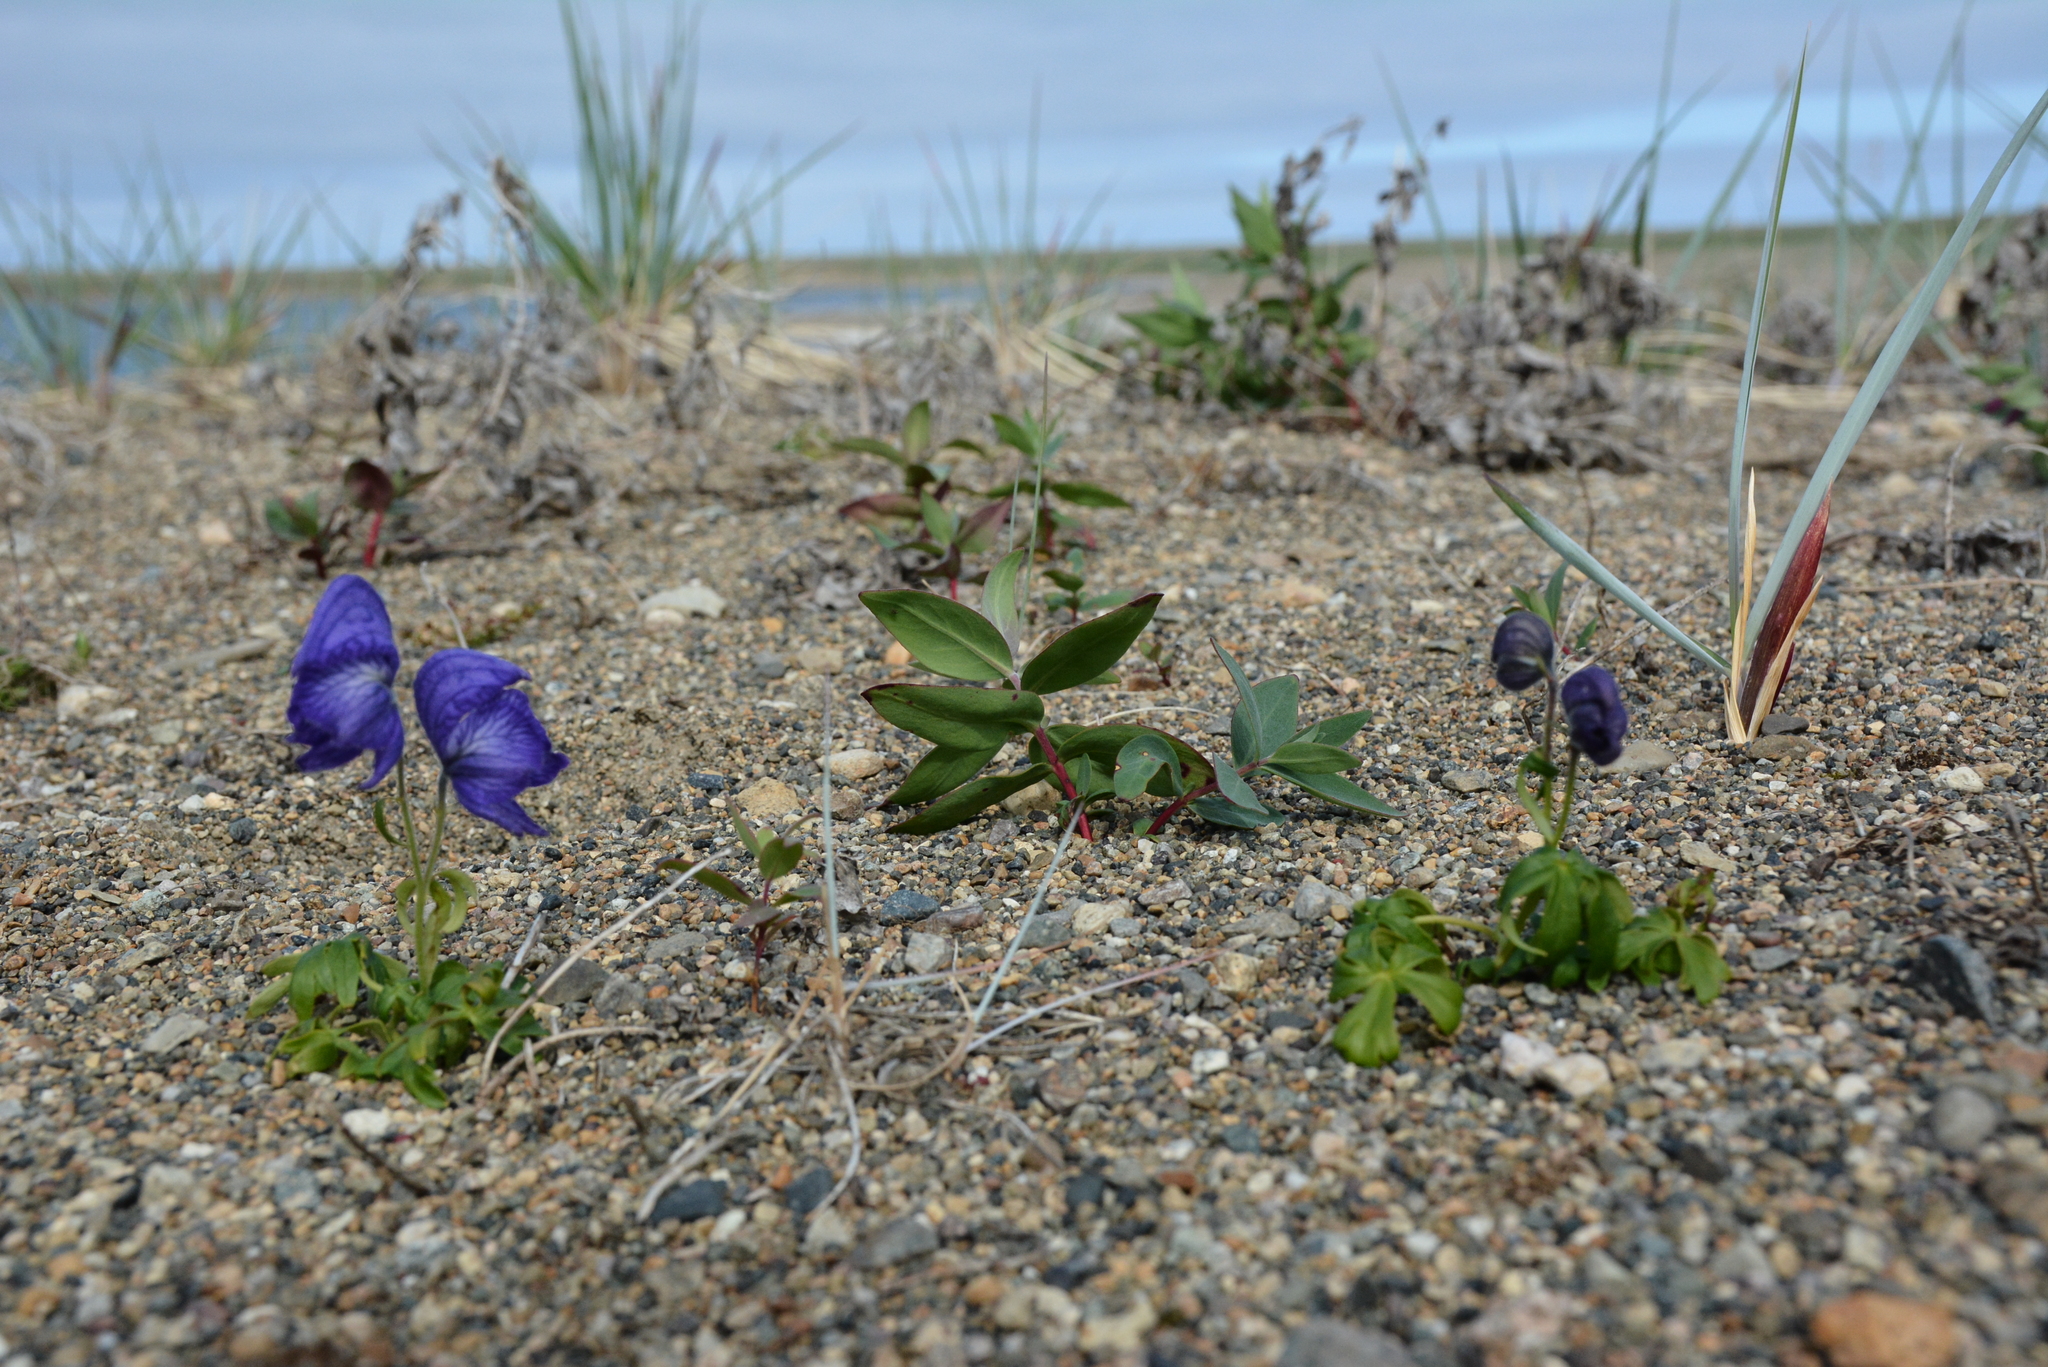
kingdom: Plantae
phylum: Tracheophyta
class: Magnoliopsida
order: Ranunculales
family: Ranunculaceae
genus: Aconitum
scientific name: Aconitum delphinifolium
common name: Larkspur-leaved monkshood
